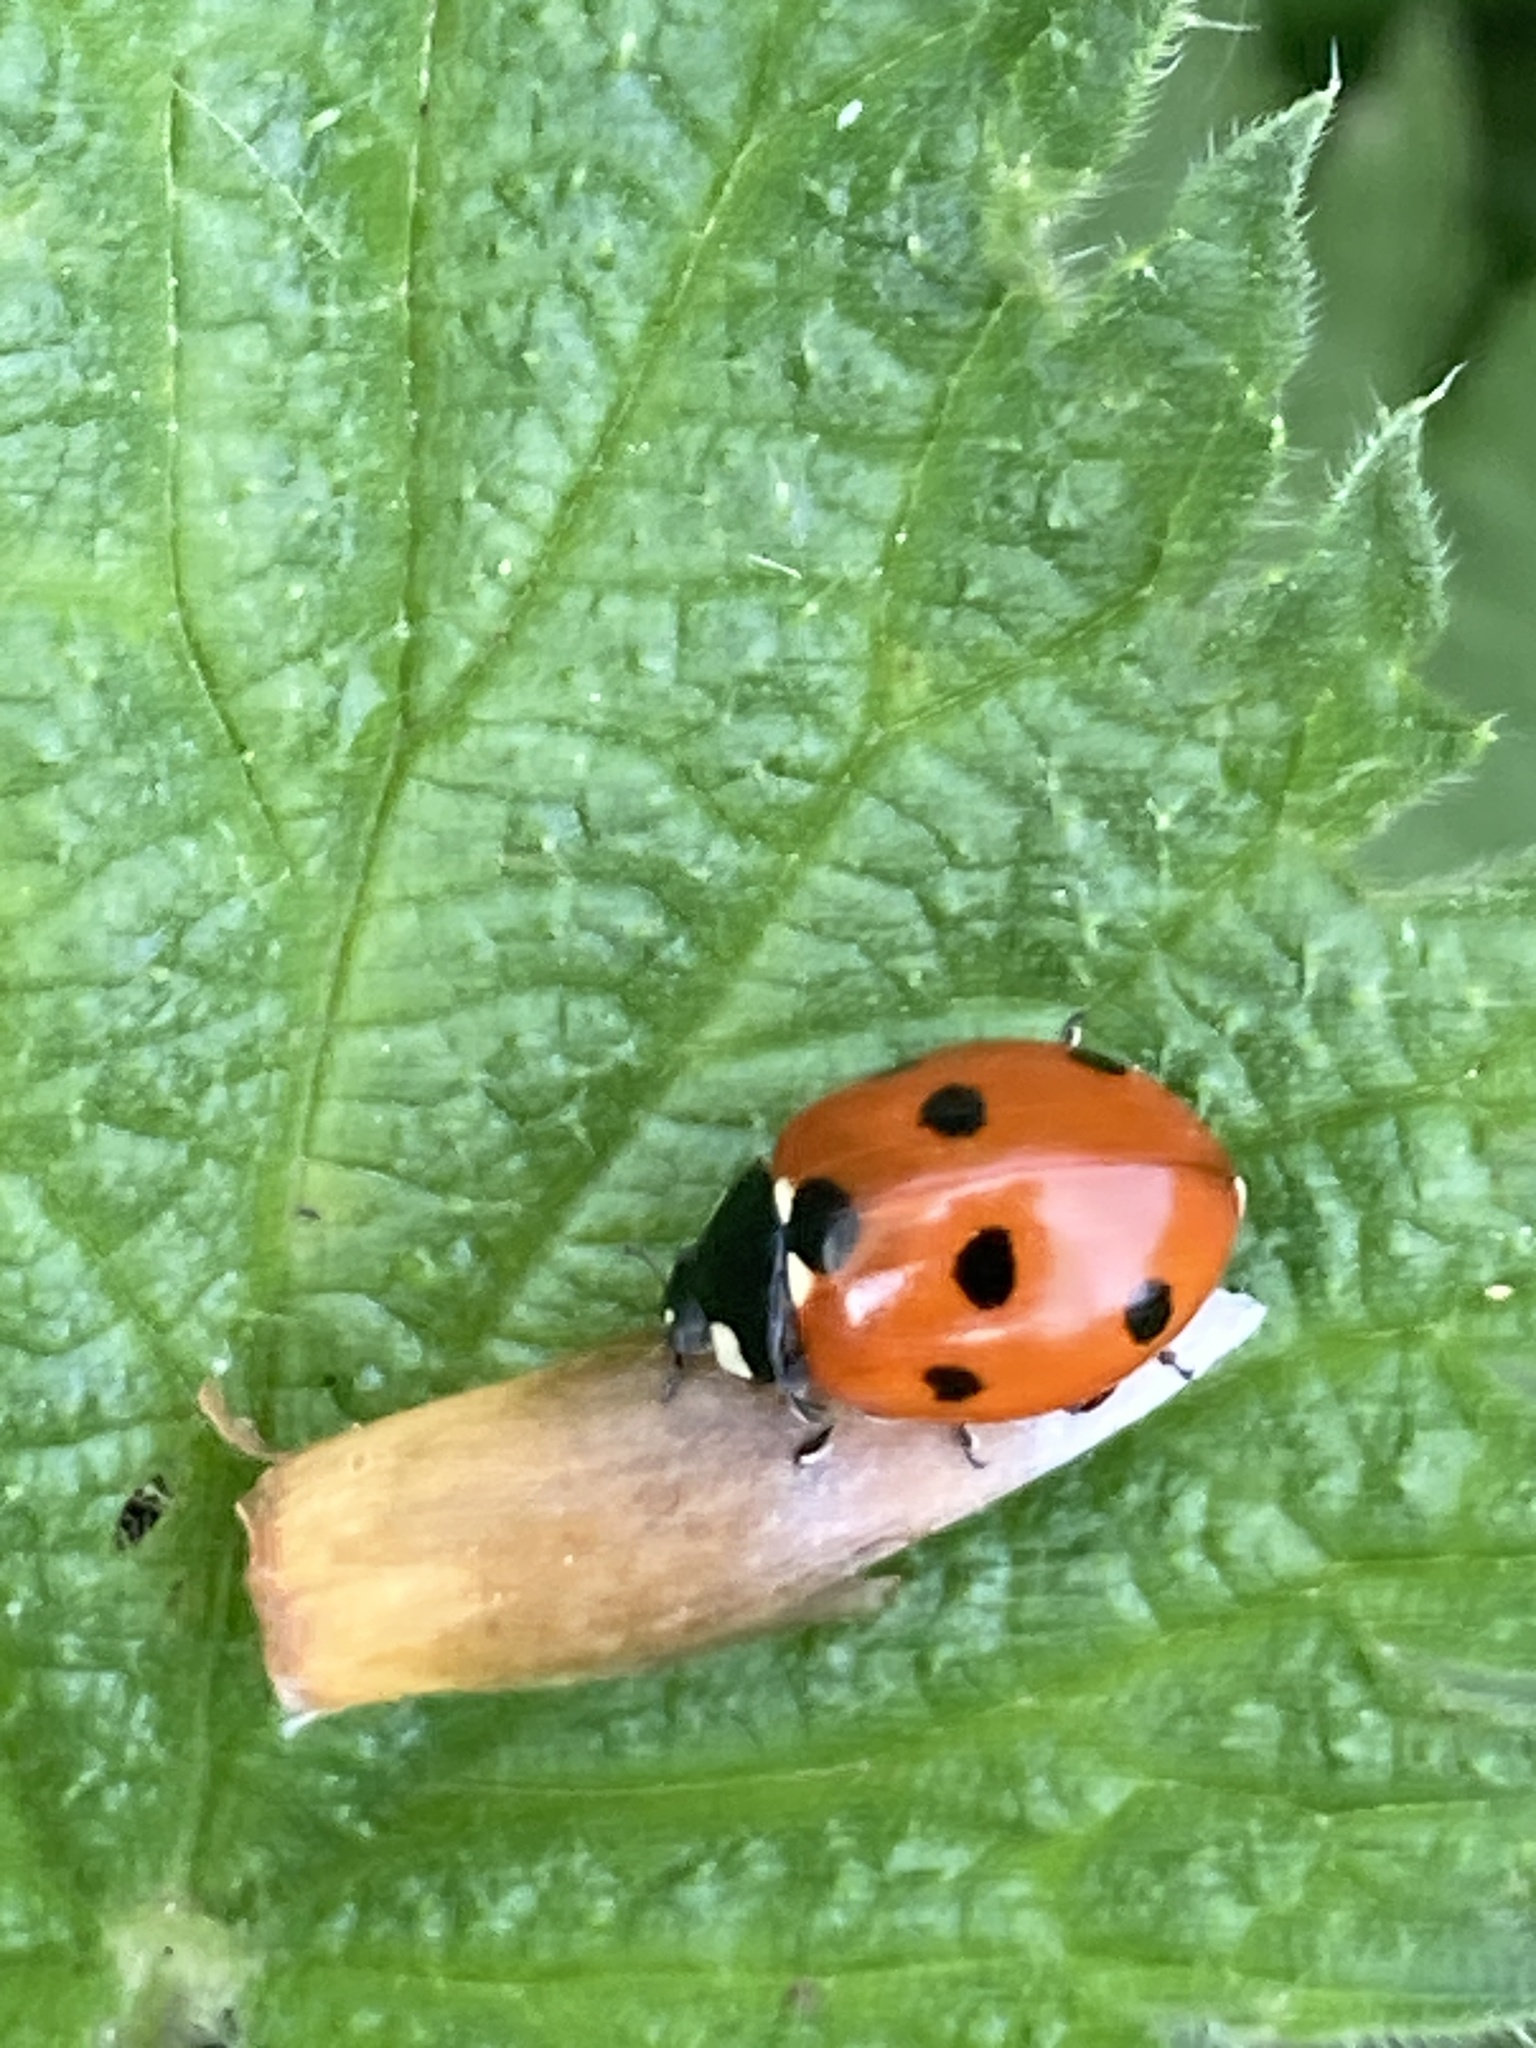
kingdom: Animalia
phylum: Arthropoda
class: Insecta
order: Coleoptera
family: Coccinellidae
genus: Coccinella
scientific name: Coccinella septempunctata
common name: Sevenspotted lady beetle
